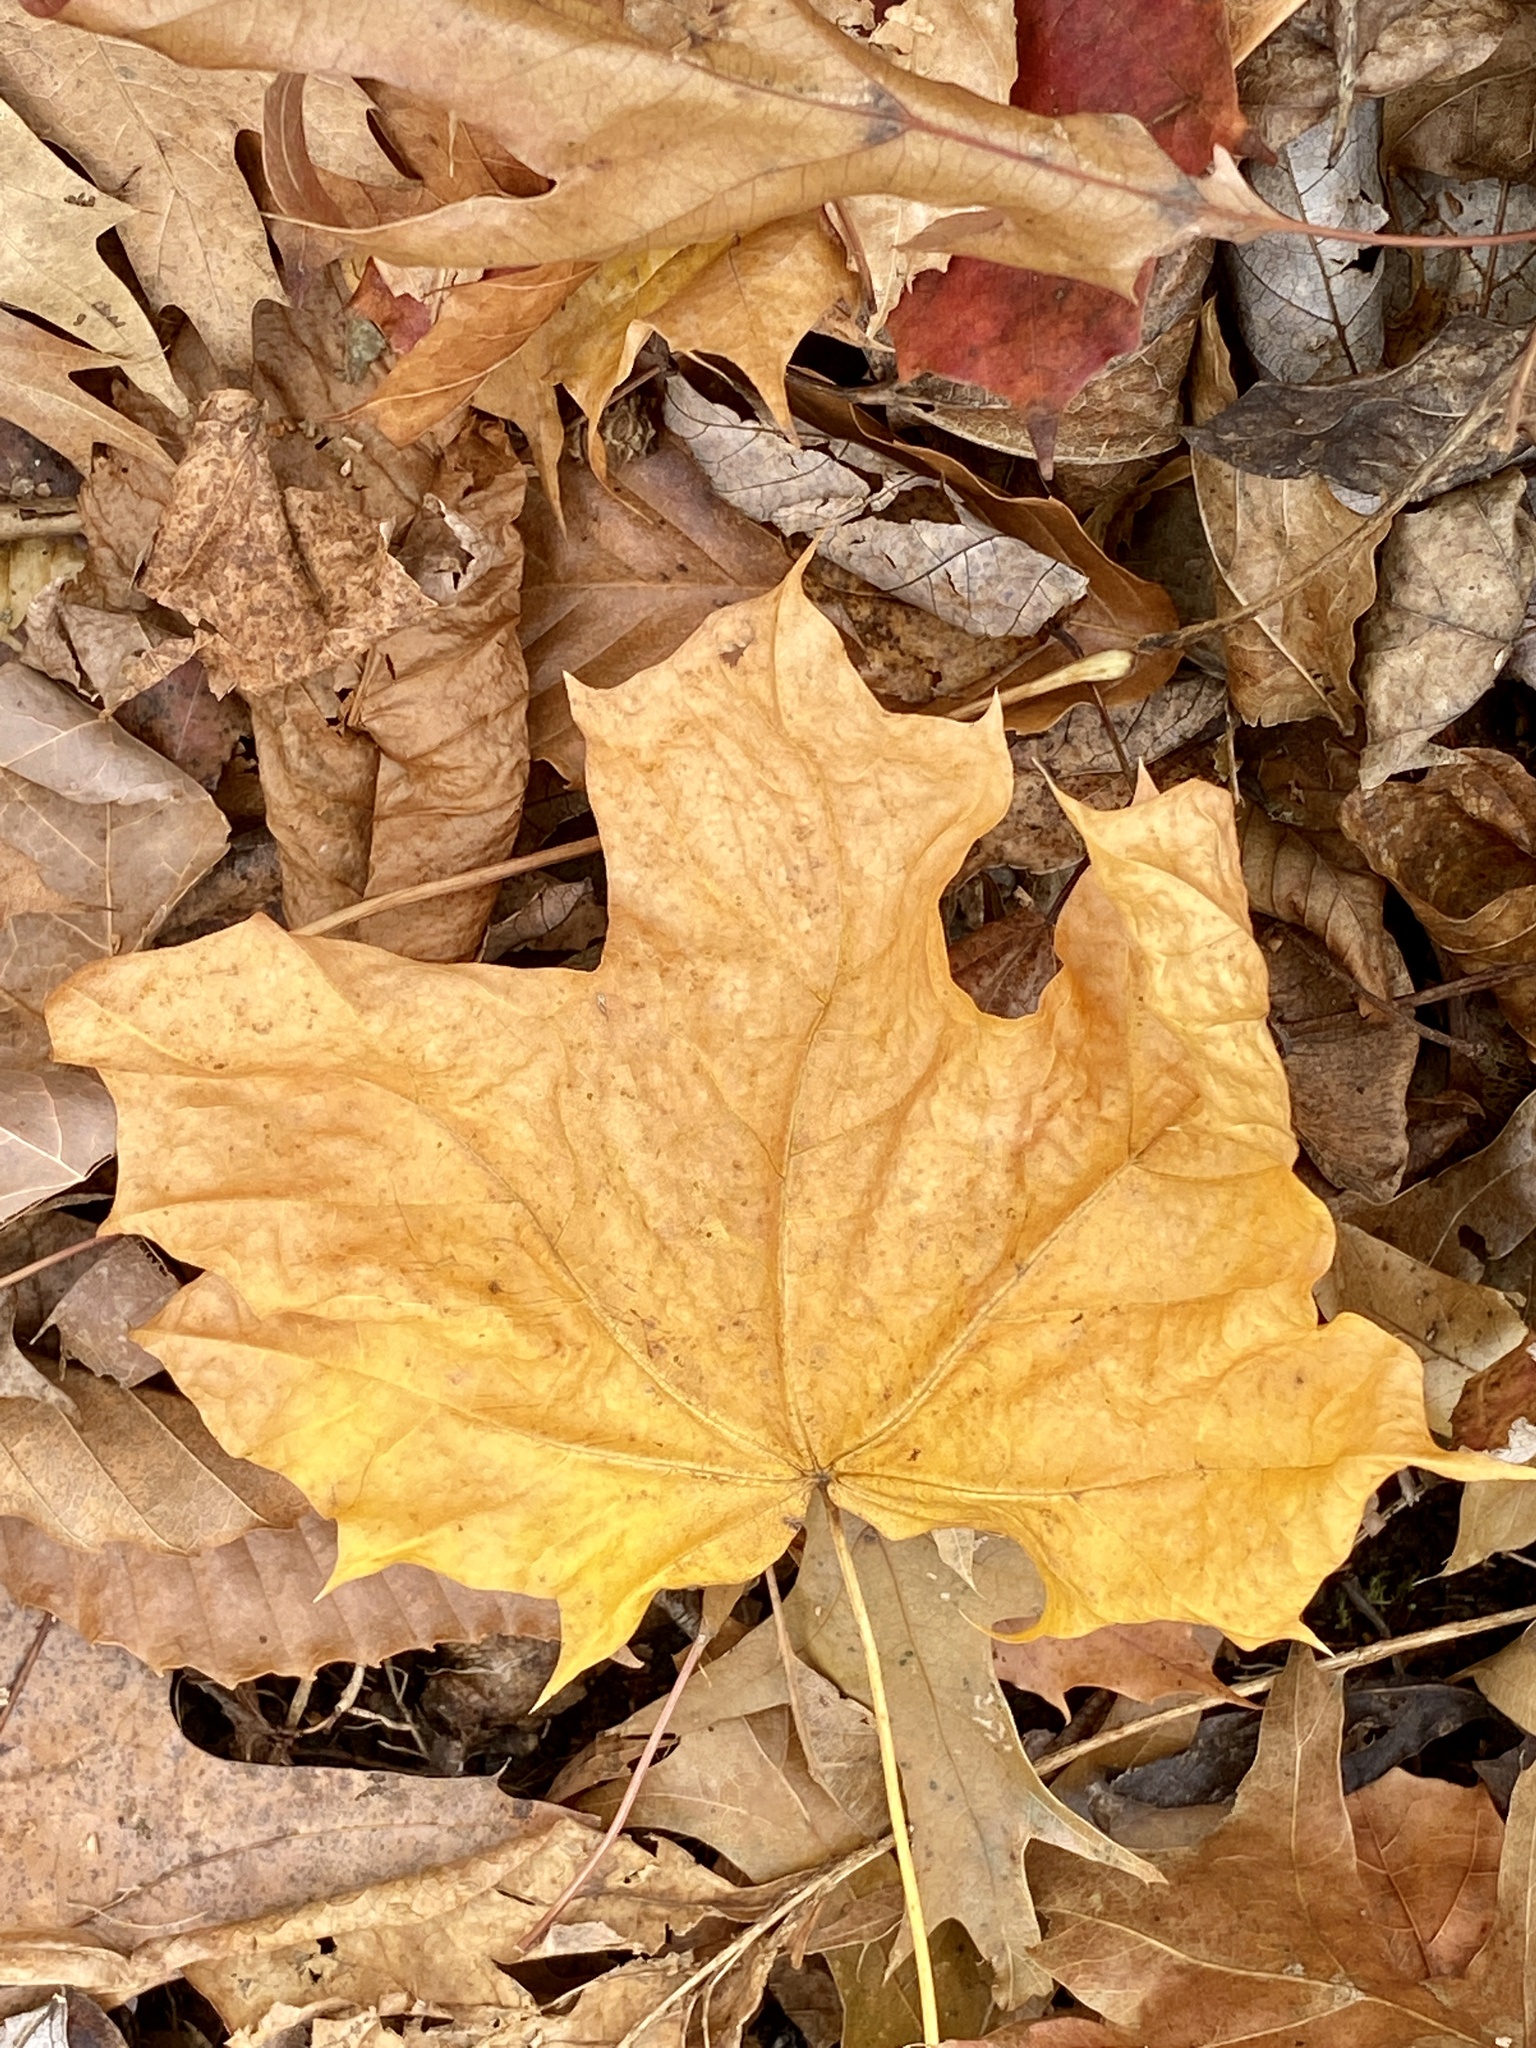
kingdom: Plantae
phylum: Tracheophyta
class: Magnoliopsida
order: Sapindales
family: Sapindaceae
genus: Acer
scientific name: Acer platanoides
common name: Norway maple
